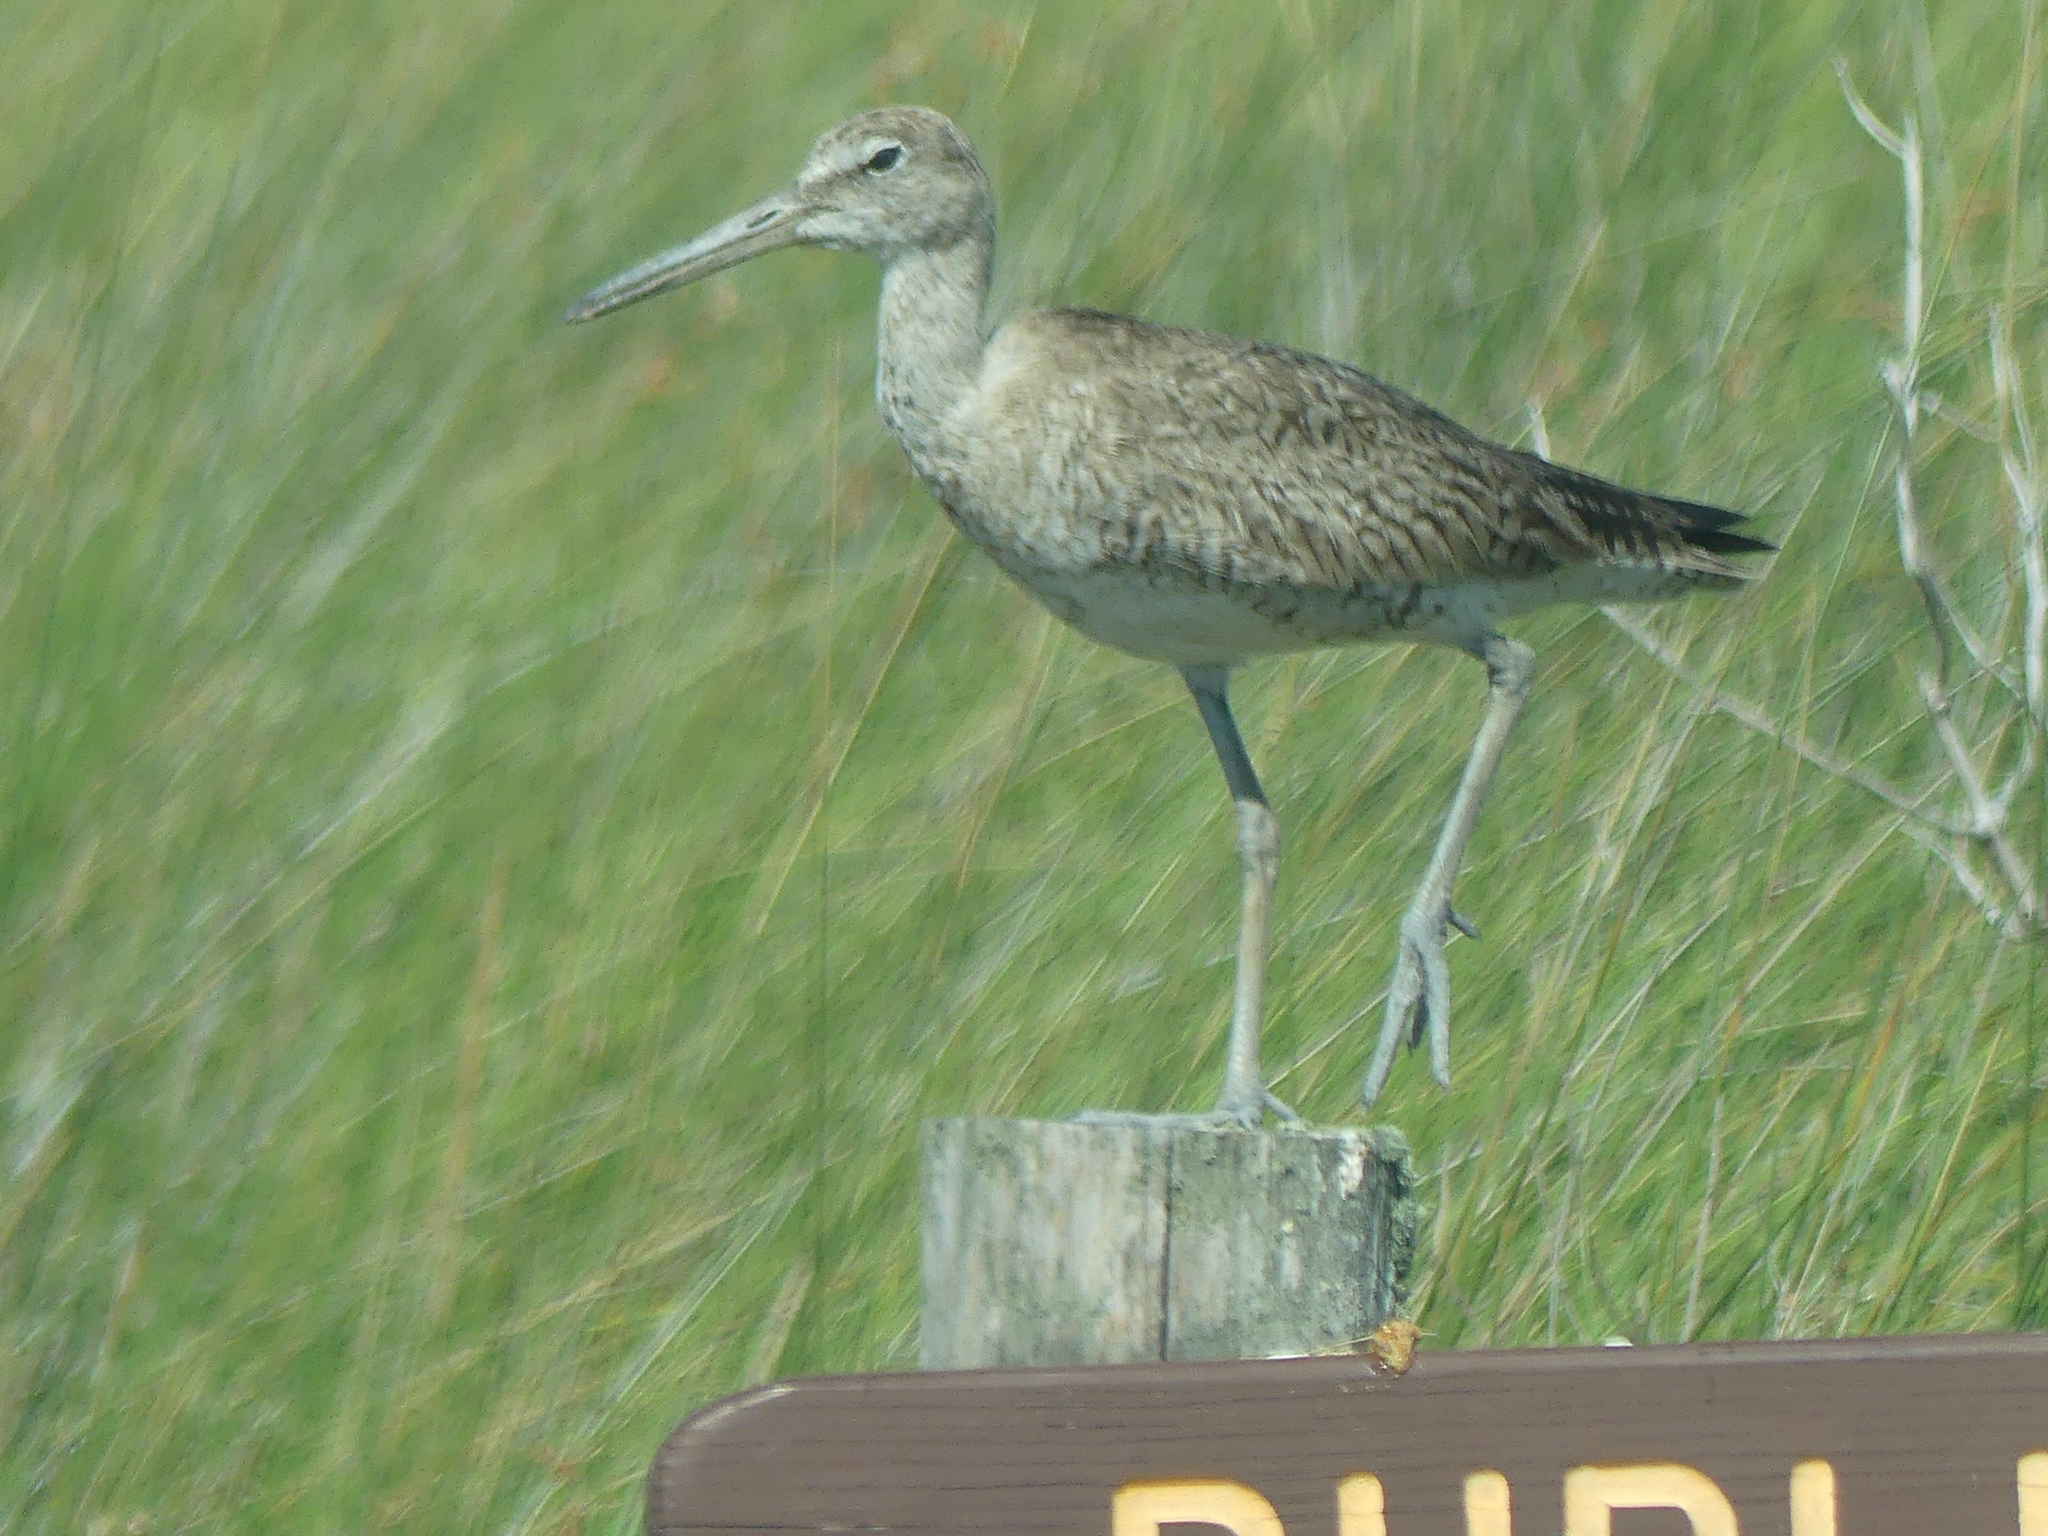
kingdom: Animalia
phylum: Chordata
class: Aves
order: Charadriiformes
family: Scolopacidae
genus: Tringa
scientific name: Tringa semipalmata
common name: Willet
